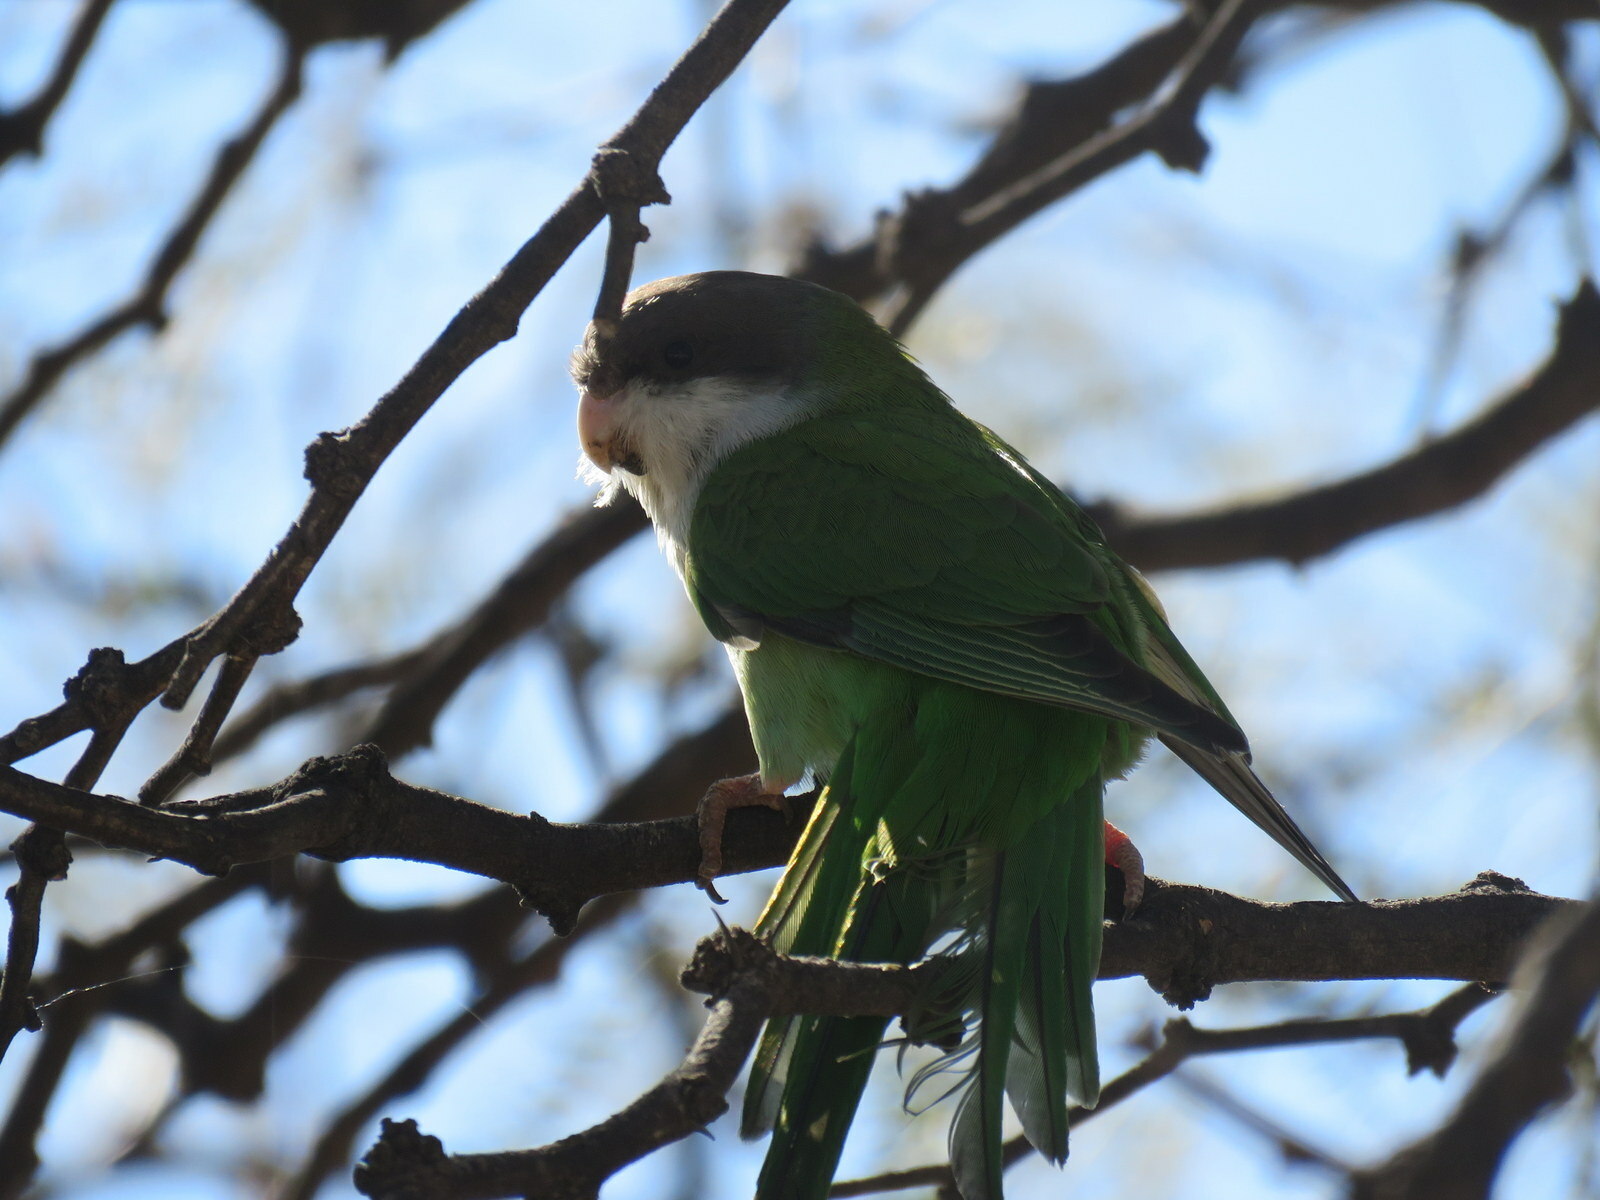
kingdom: Animalia
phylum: Chordata
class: Aves
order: Psittaciformes
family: Psittacidae
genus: Psilopsiagon
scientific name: Psilopsiagon aymara
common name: Grey-hooded parakeet
